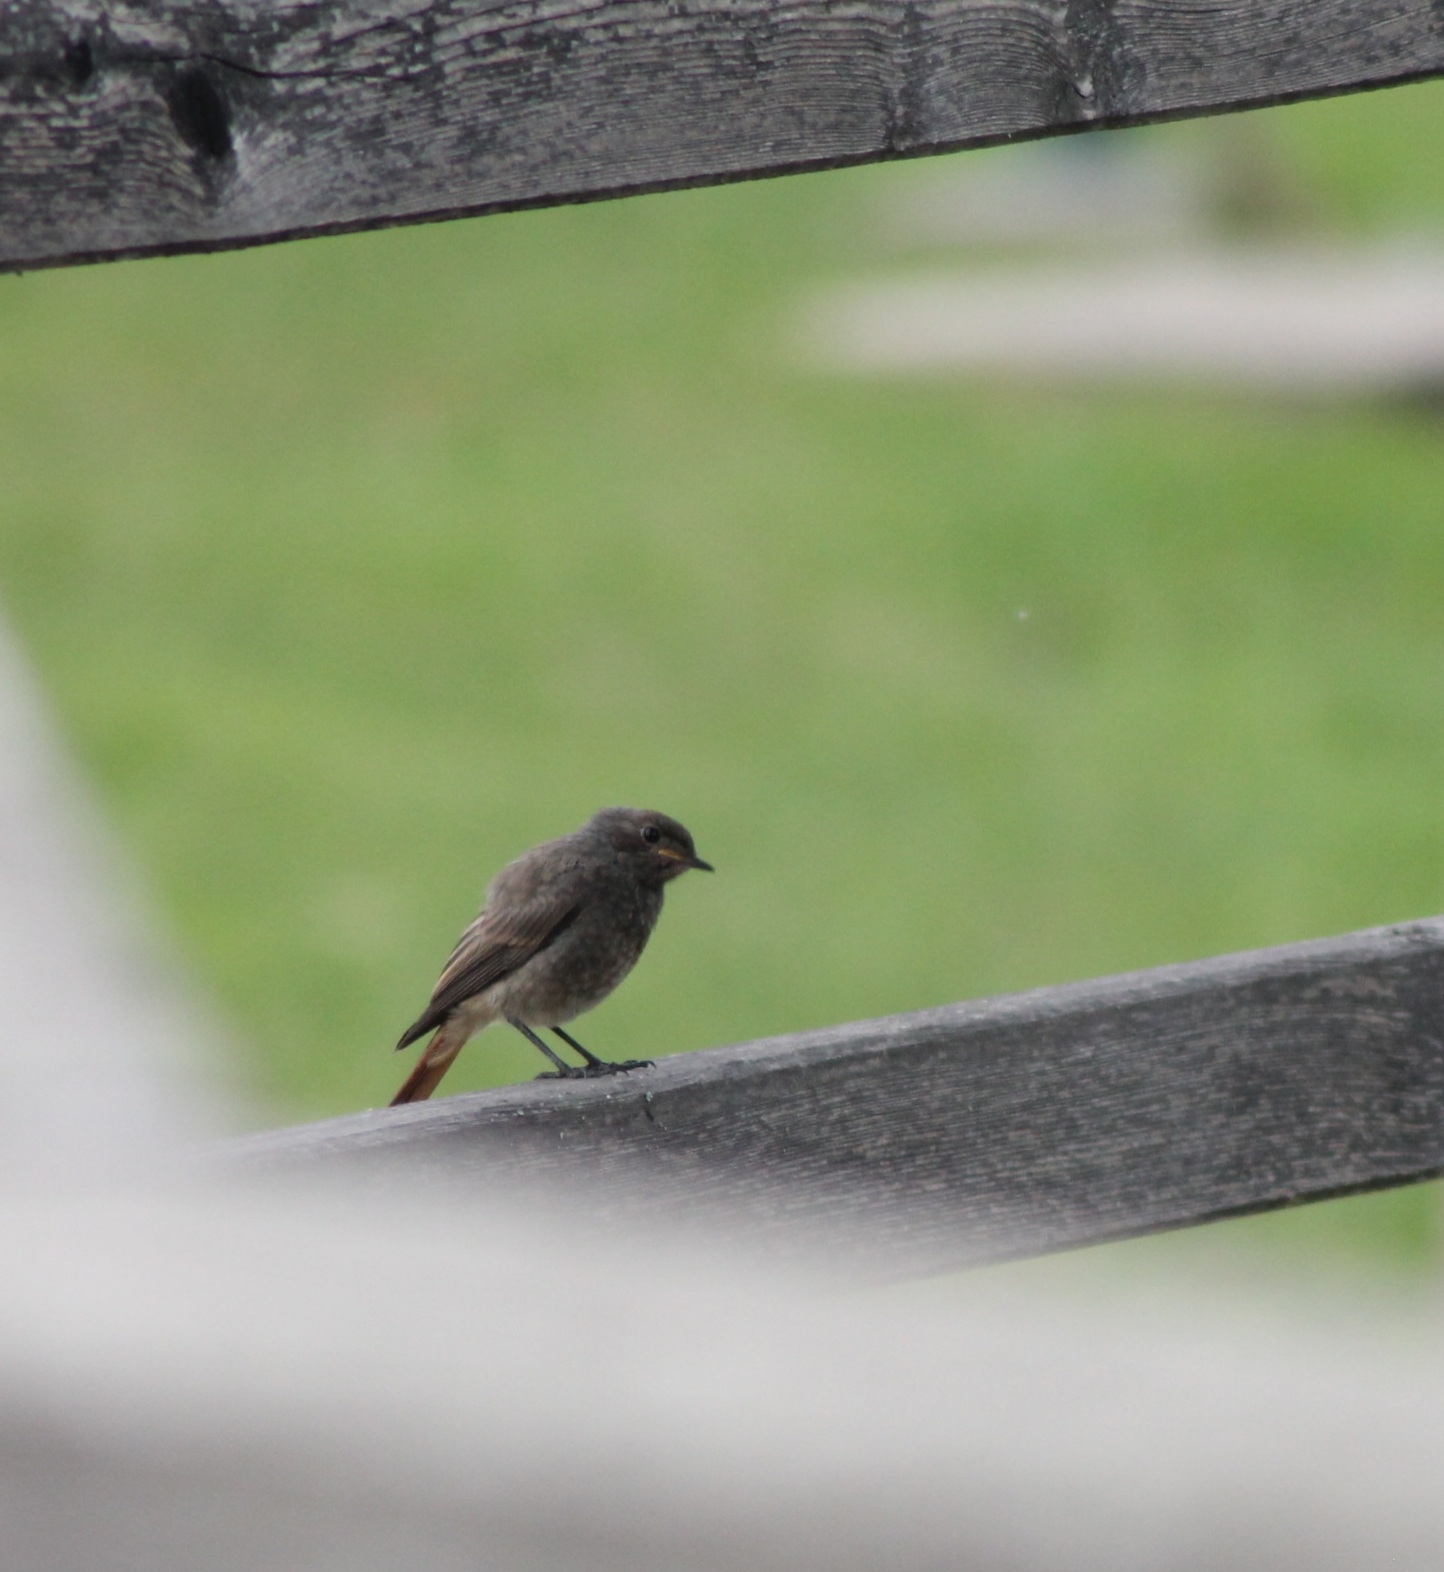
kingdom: Animalia
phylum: Chordata
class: Aves
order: Passeriformes
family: Muscicapidae
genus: Phoenicurus
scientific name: Phoenicurus ochruros
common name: Black redstart
